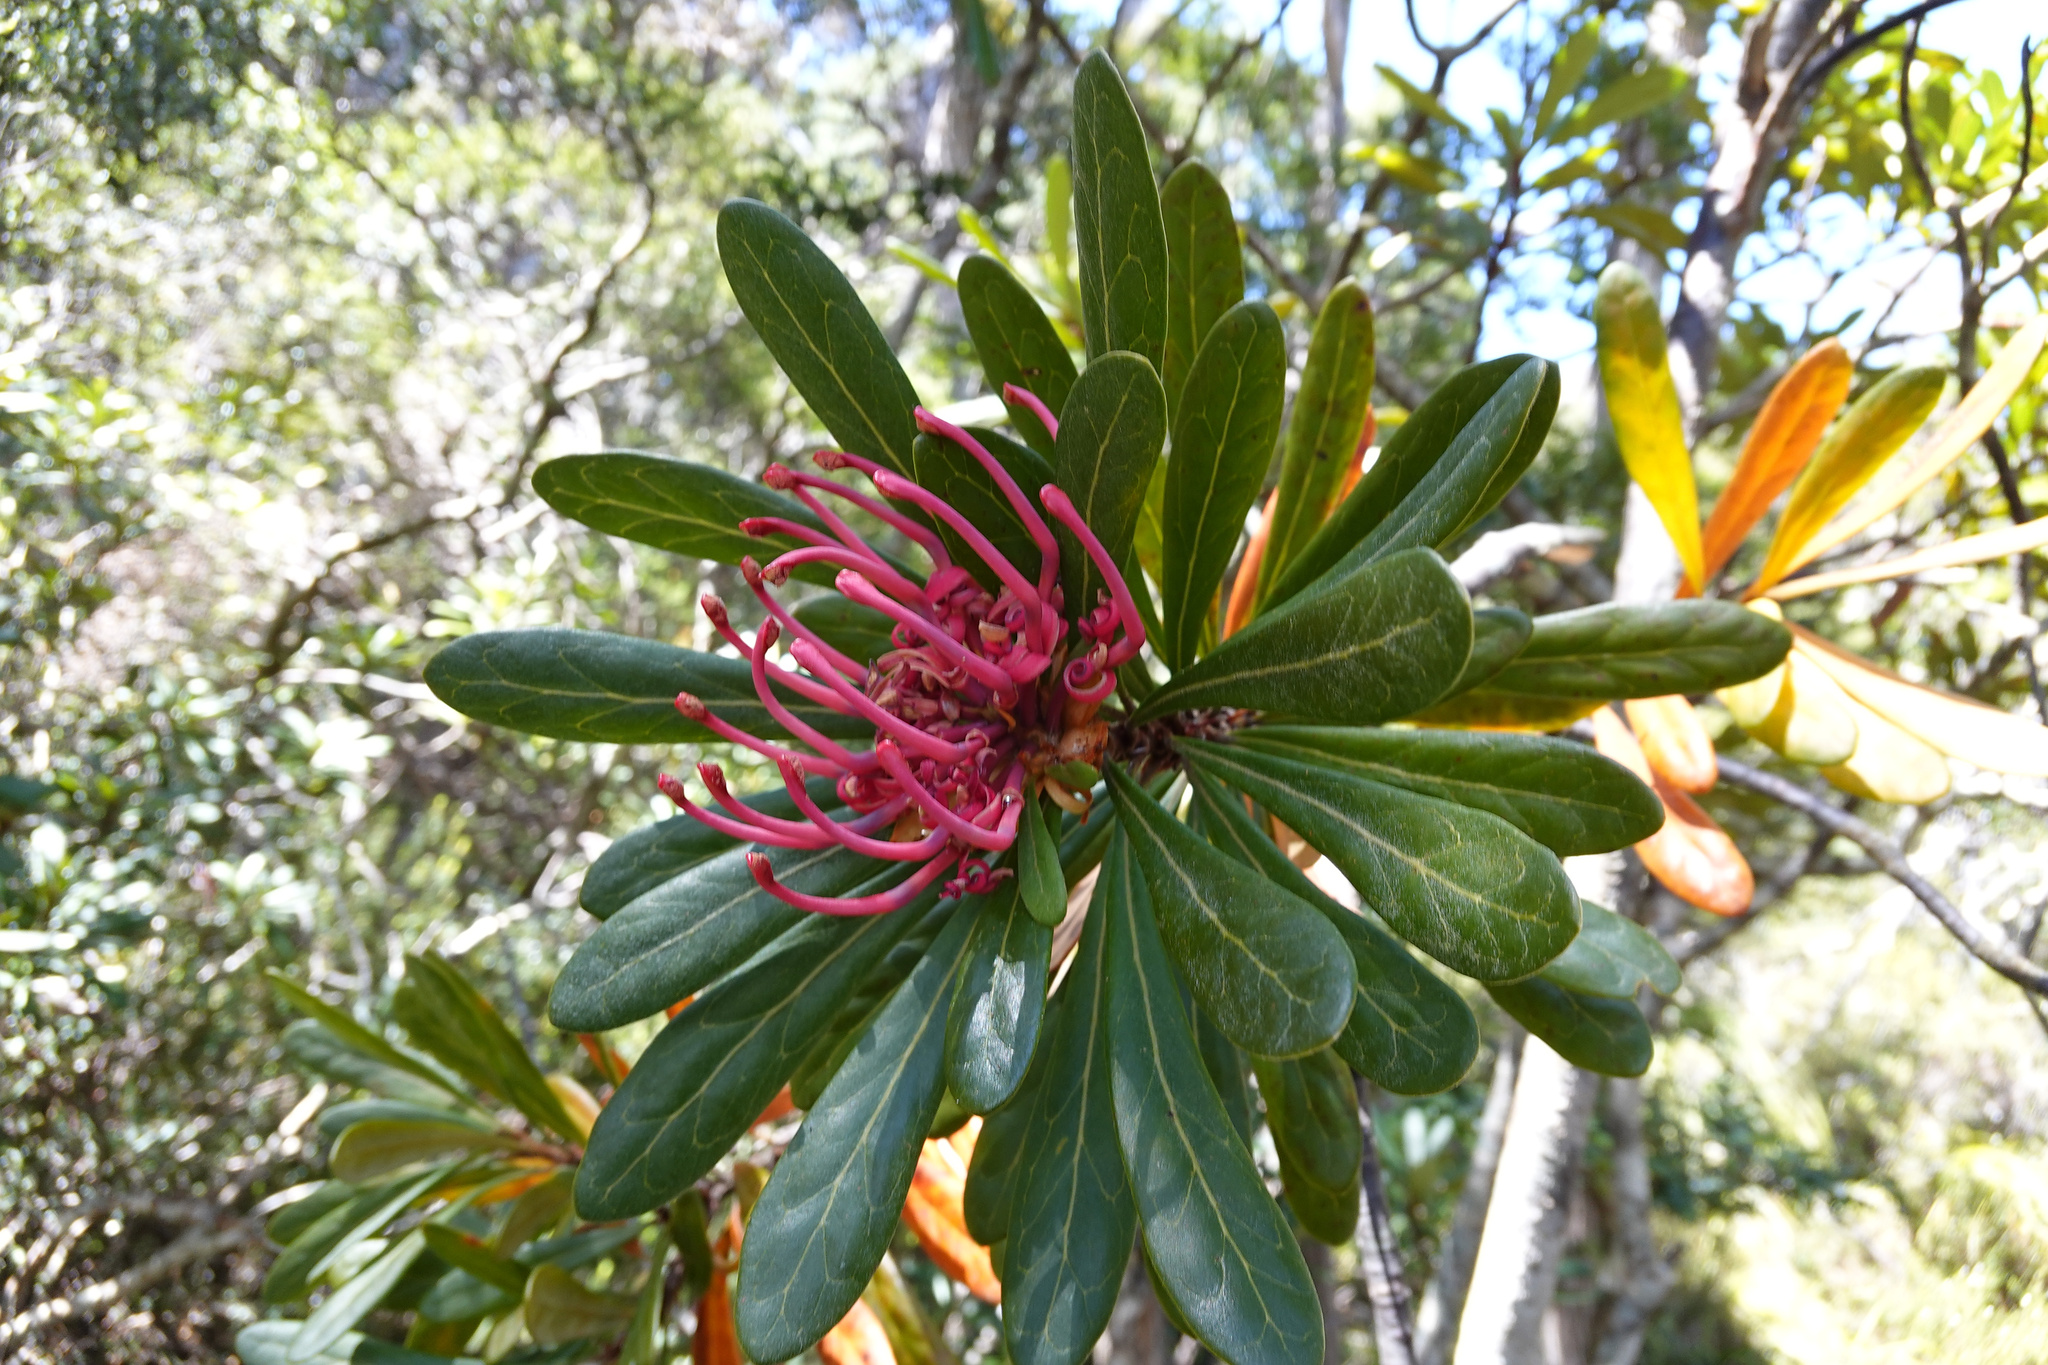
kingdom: Plantae
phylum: Tracheophyta
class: Magnoliopsida
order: Proteales
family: Proteaceae
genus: Telopea
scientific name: Telopea truncata
